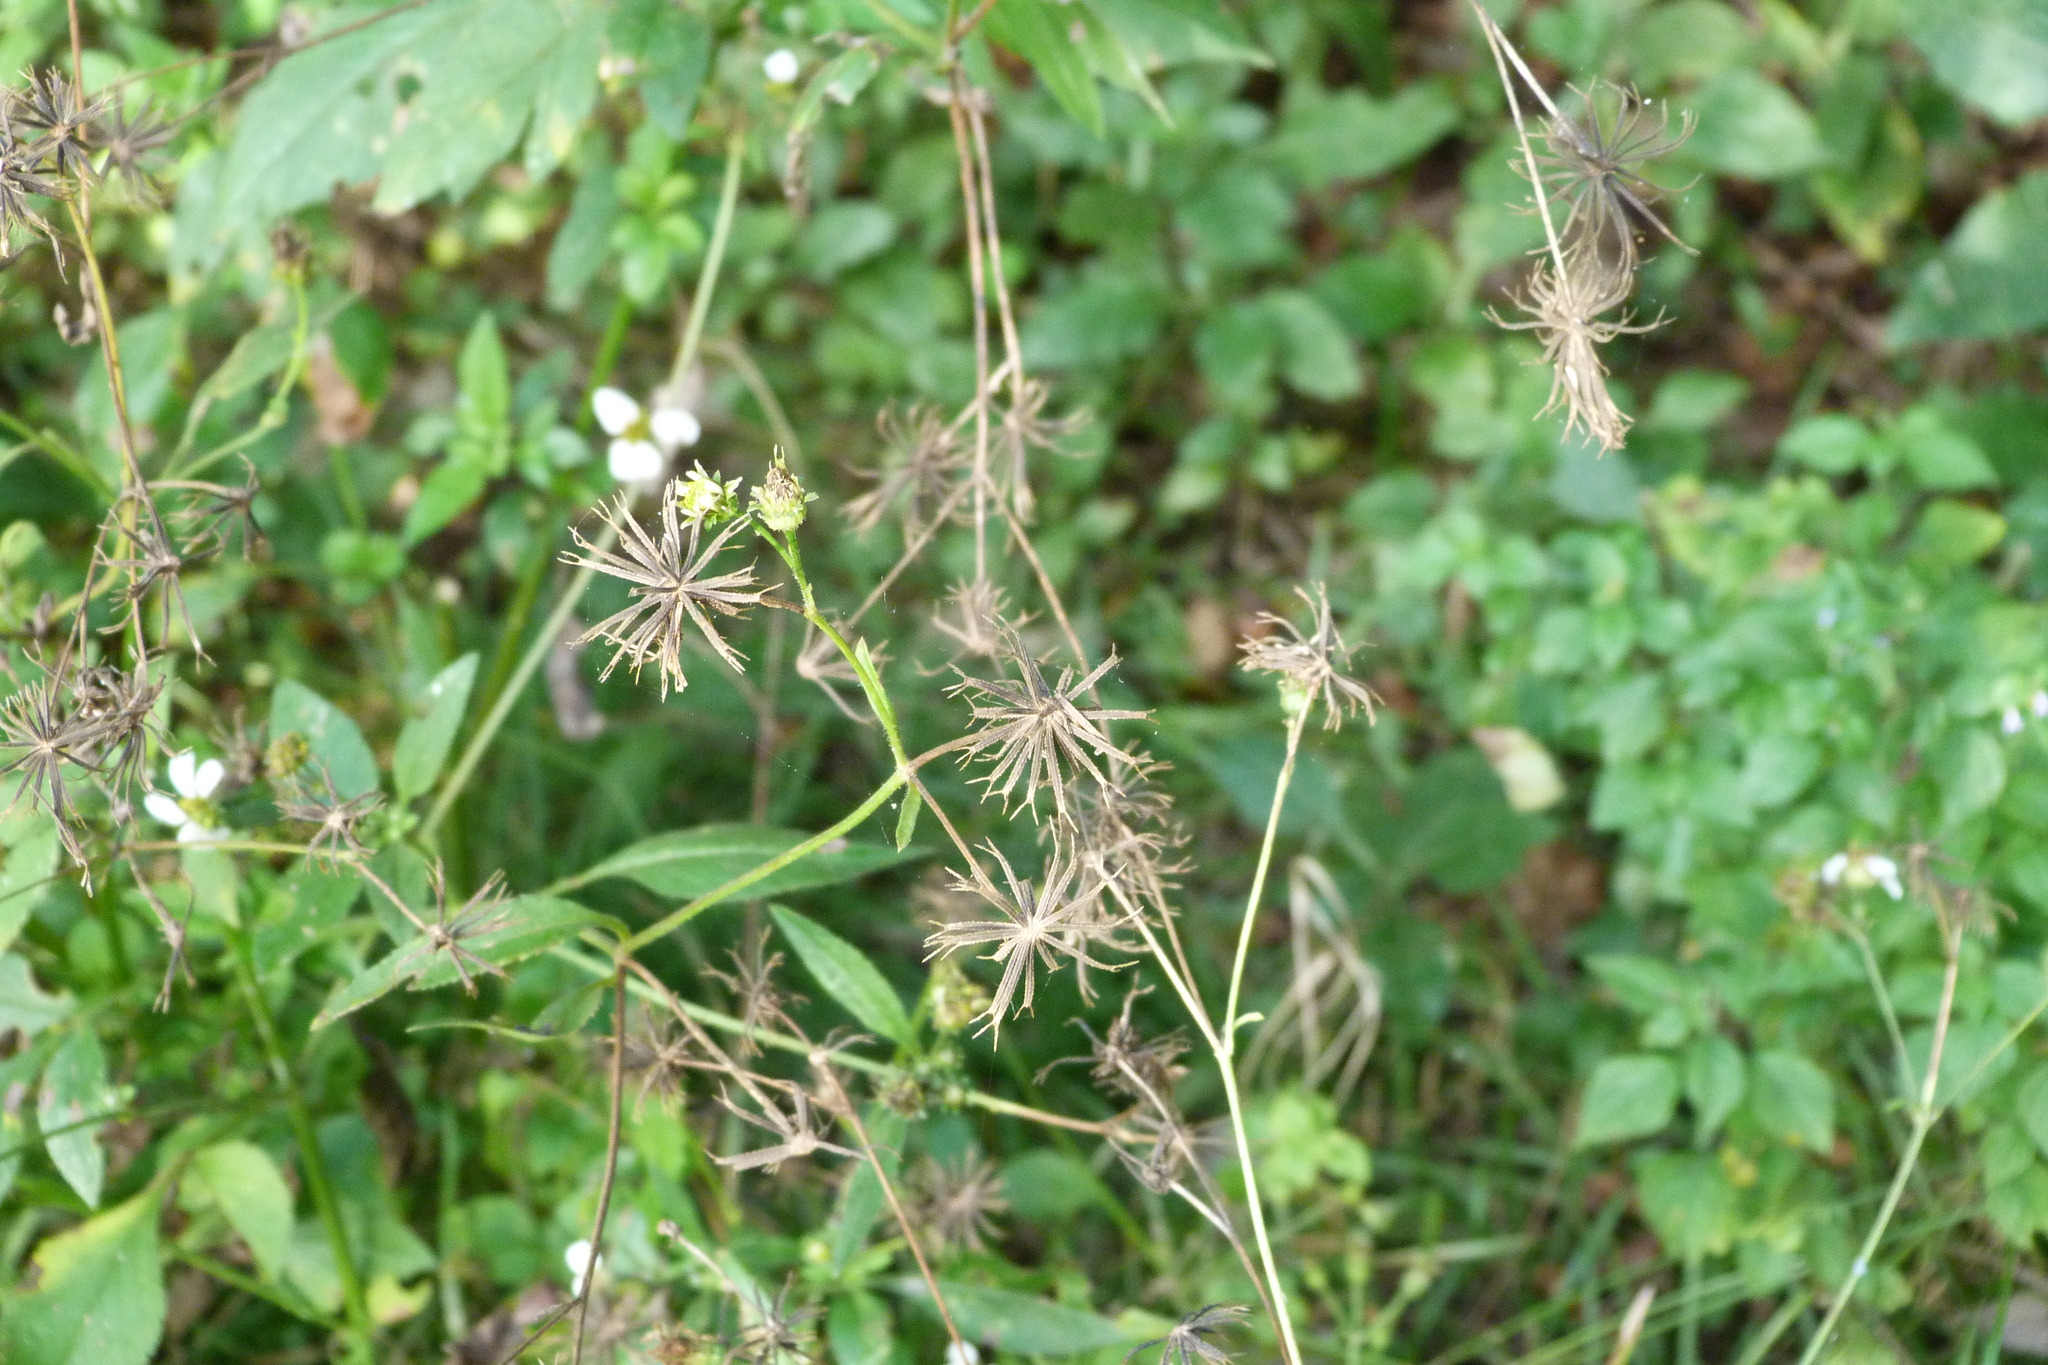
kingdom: Plantae
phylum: Tracheophyta
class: Magnoliopsida
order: Asterales
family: Asteraceae
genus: Bidens
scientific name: Bidens alba
